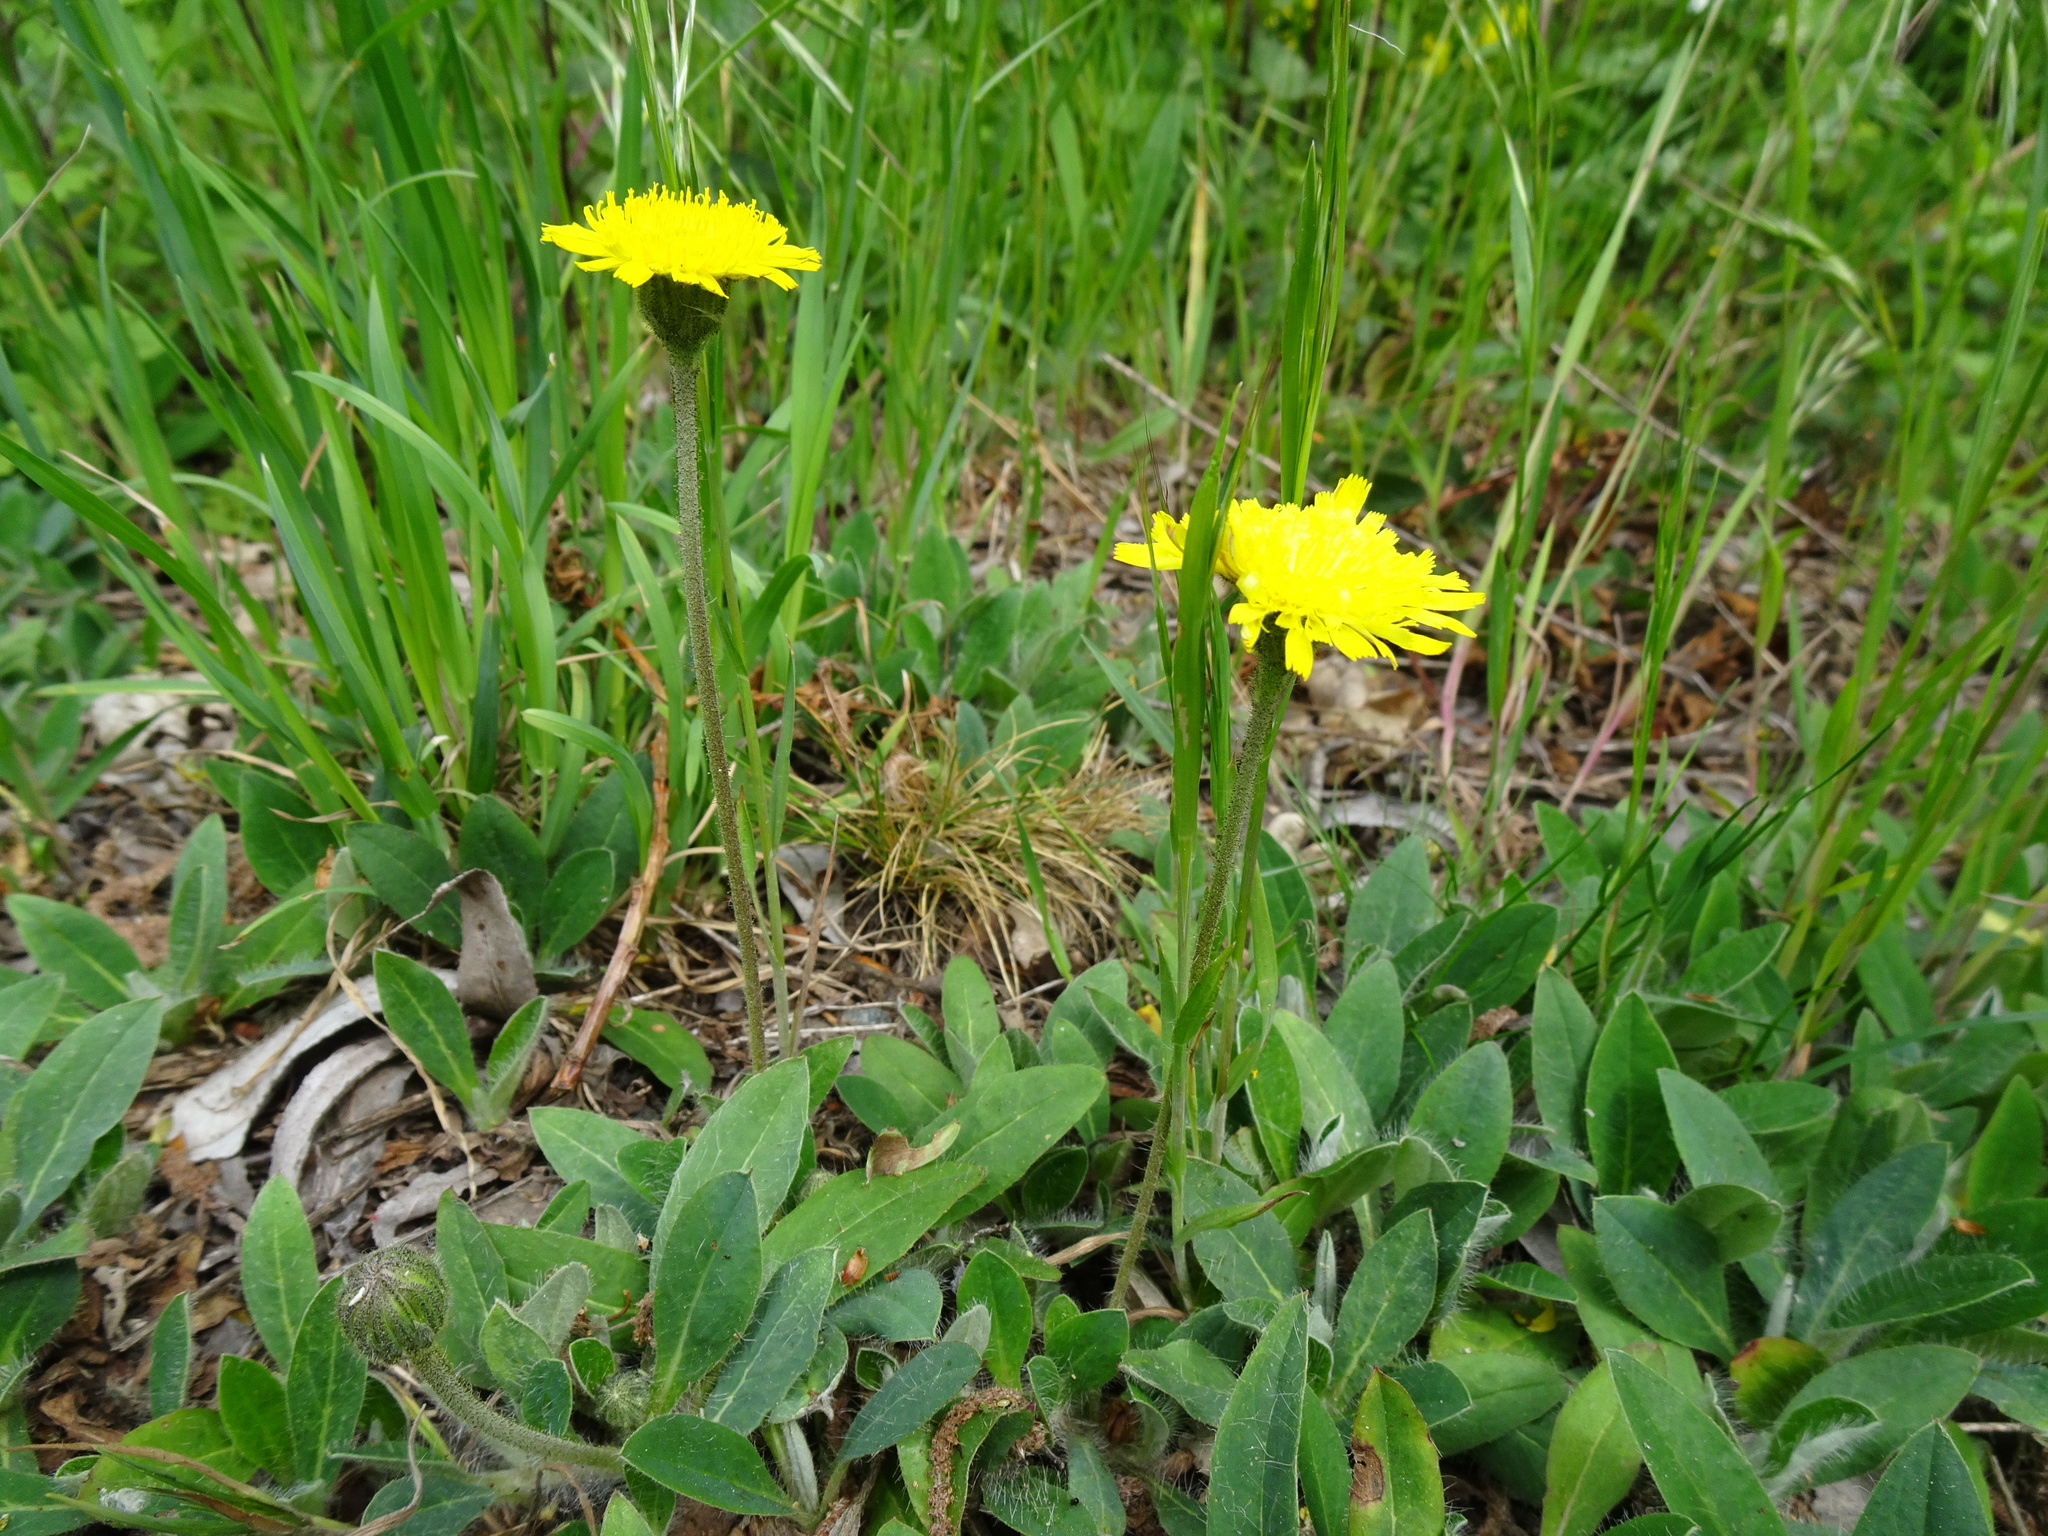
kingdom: Plantae
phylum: Tracheophyta
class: Magnoliopsida
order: Asterales
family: Asteraceae
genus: Pilosella
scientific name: Pilosella officinarum
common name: Mouse-ear hawkweed
